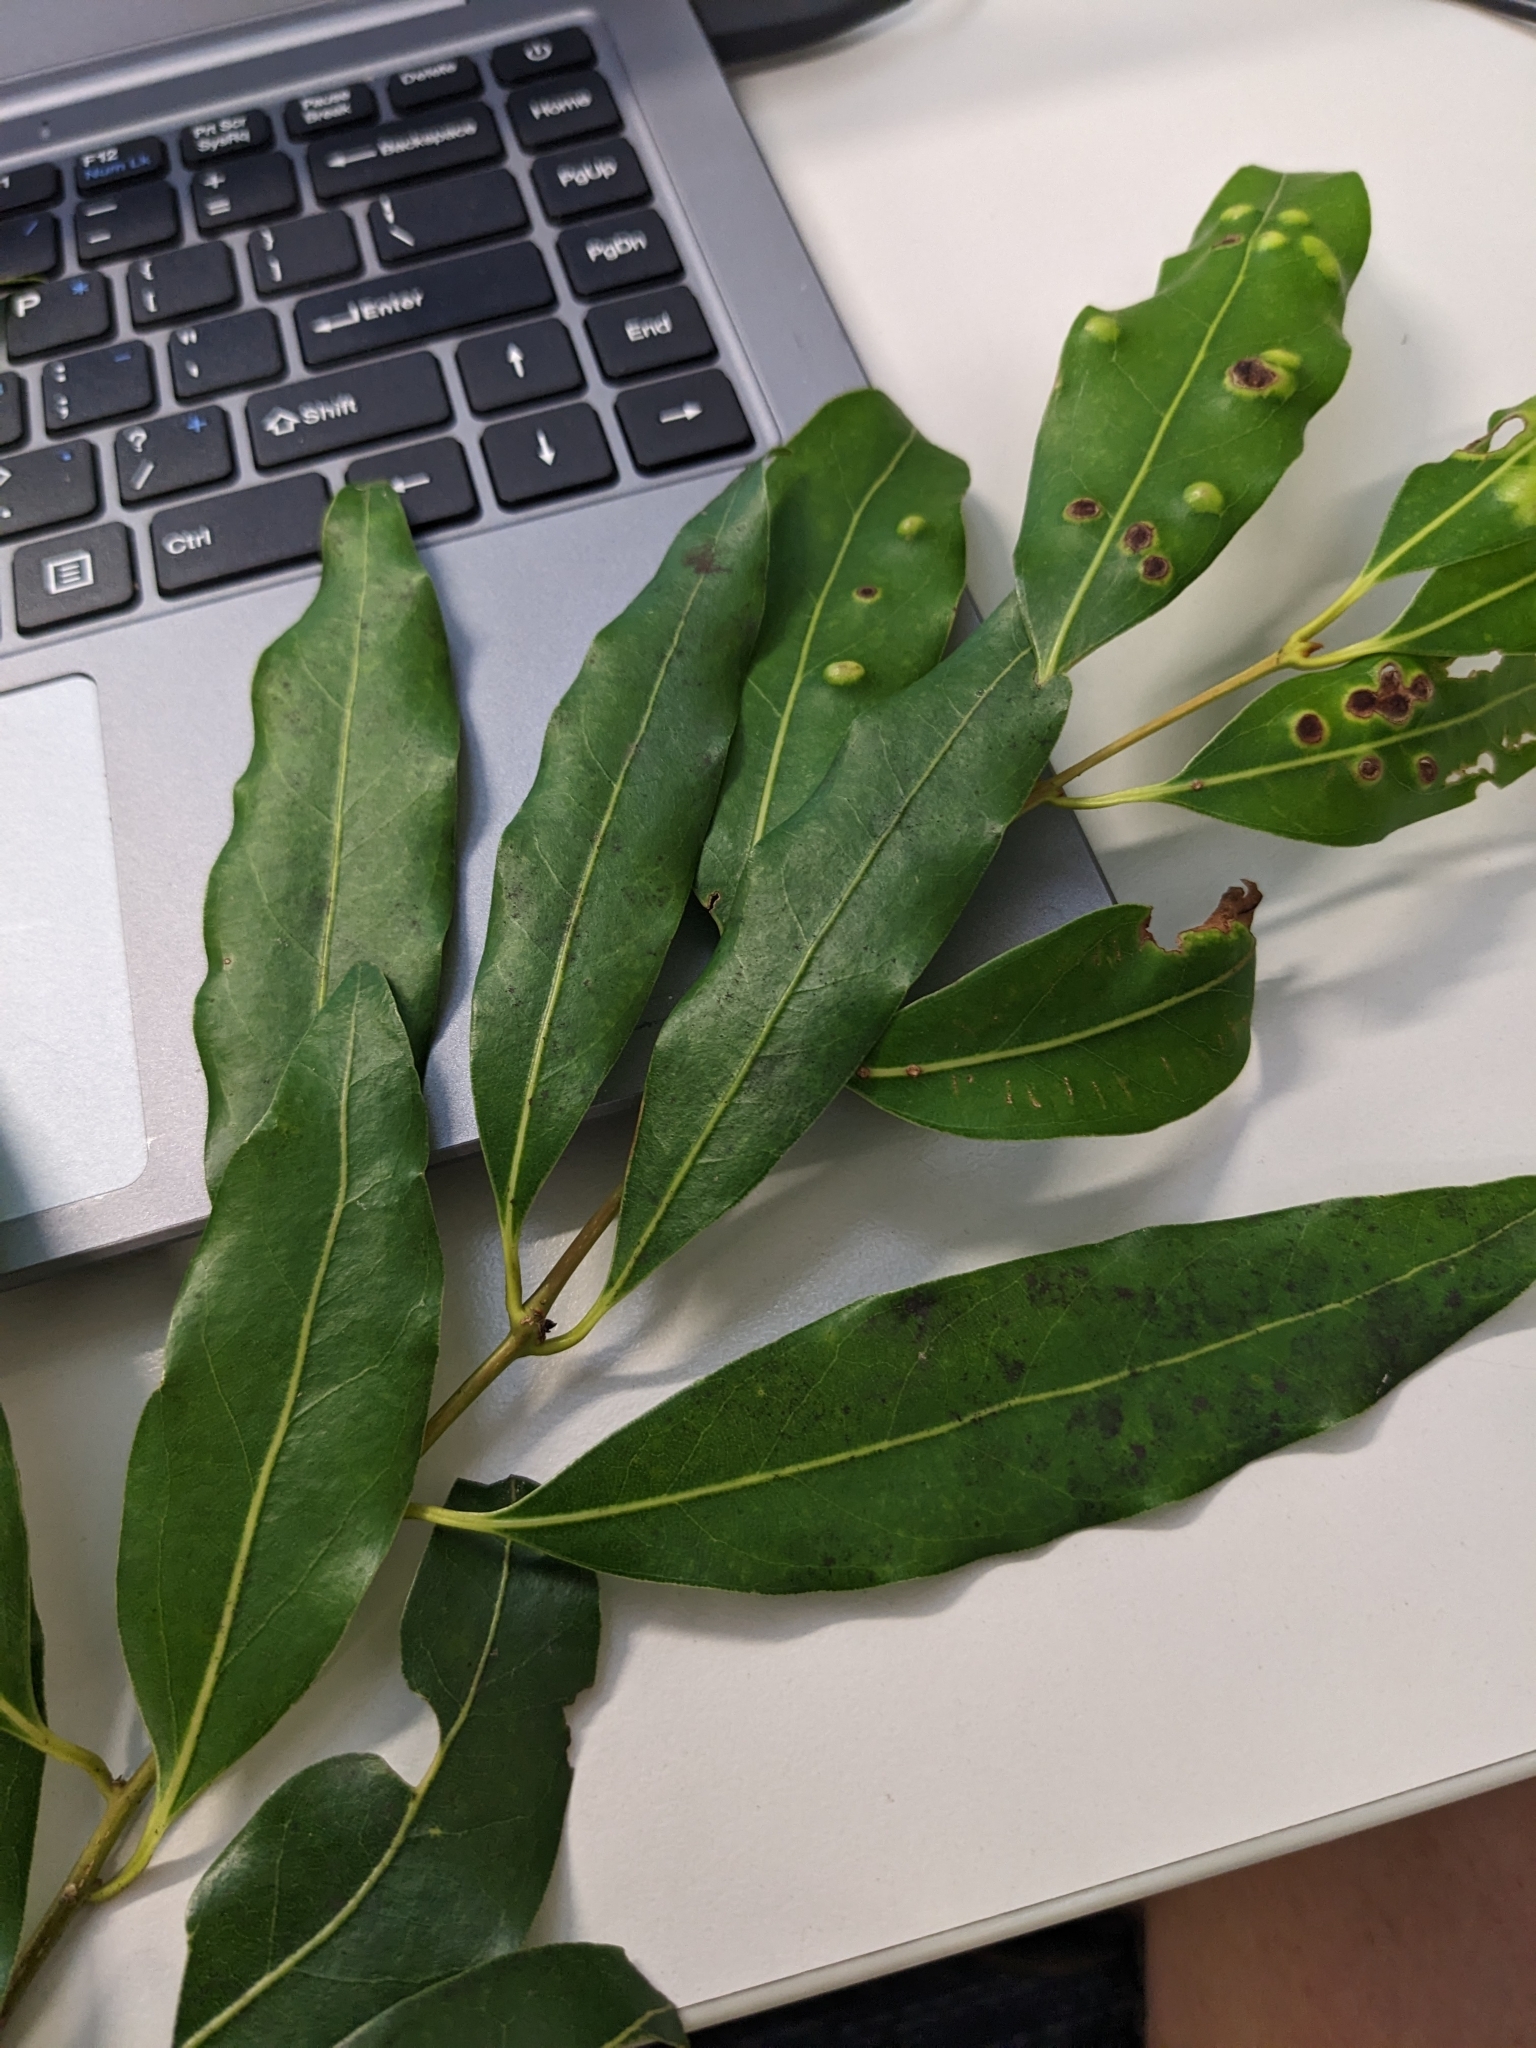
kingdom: Plantae
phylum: Tracheophyta
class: Magnoliopsida
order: Laurales
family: Lauraceae
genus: Cinnamomum
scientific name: Cinnamomum oliveri
